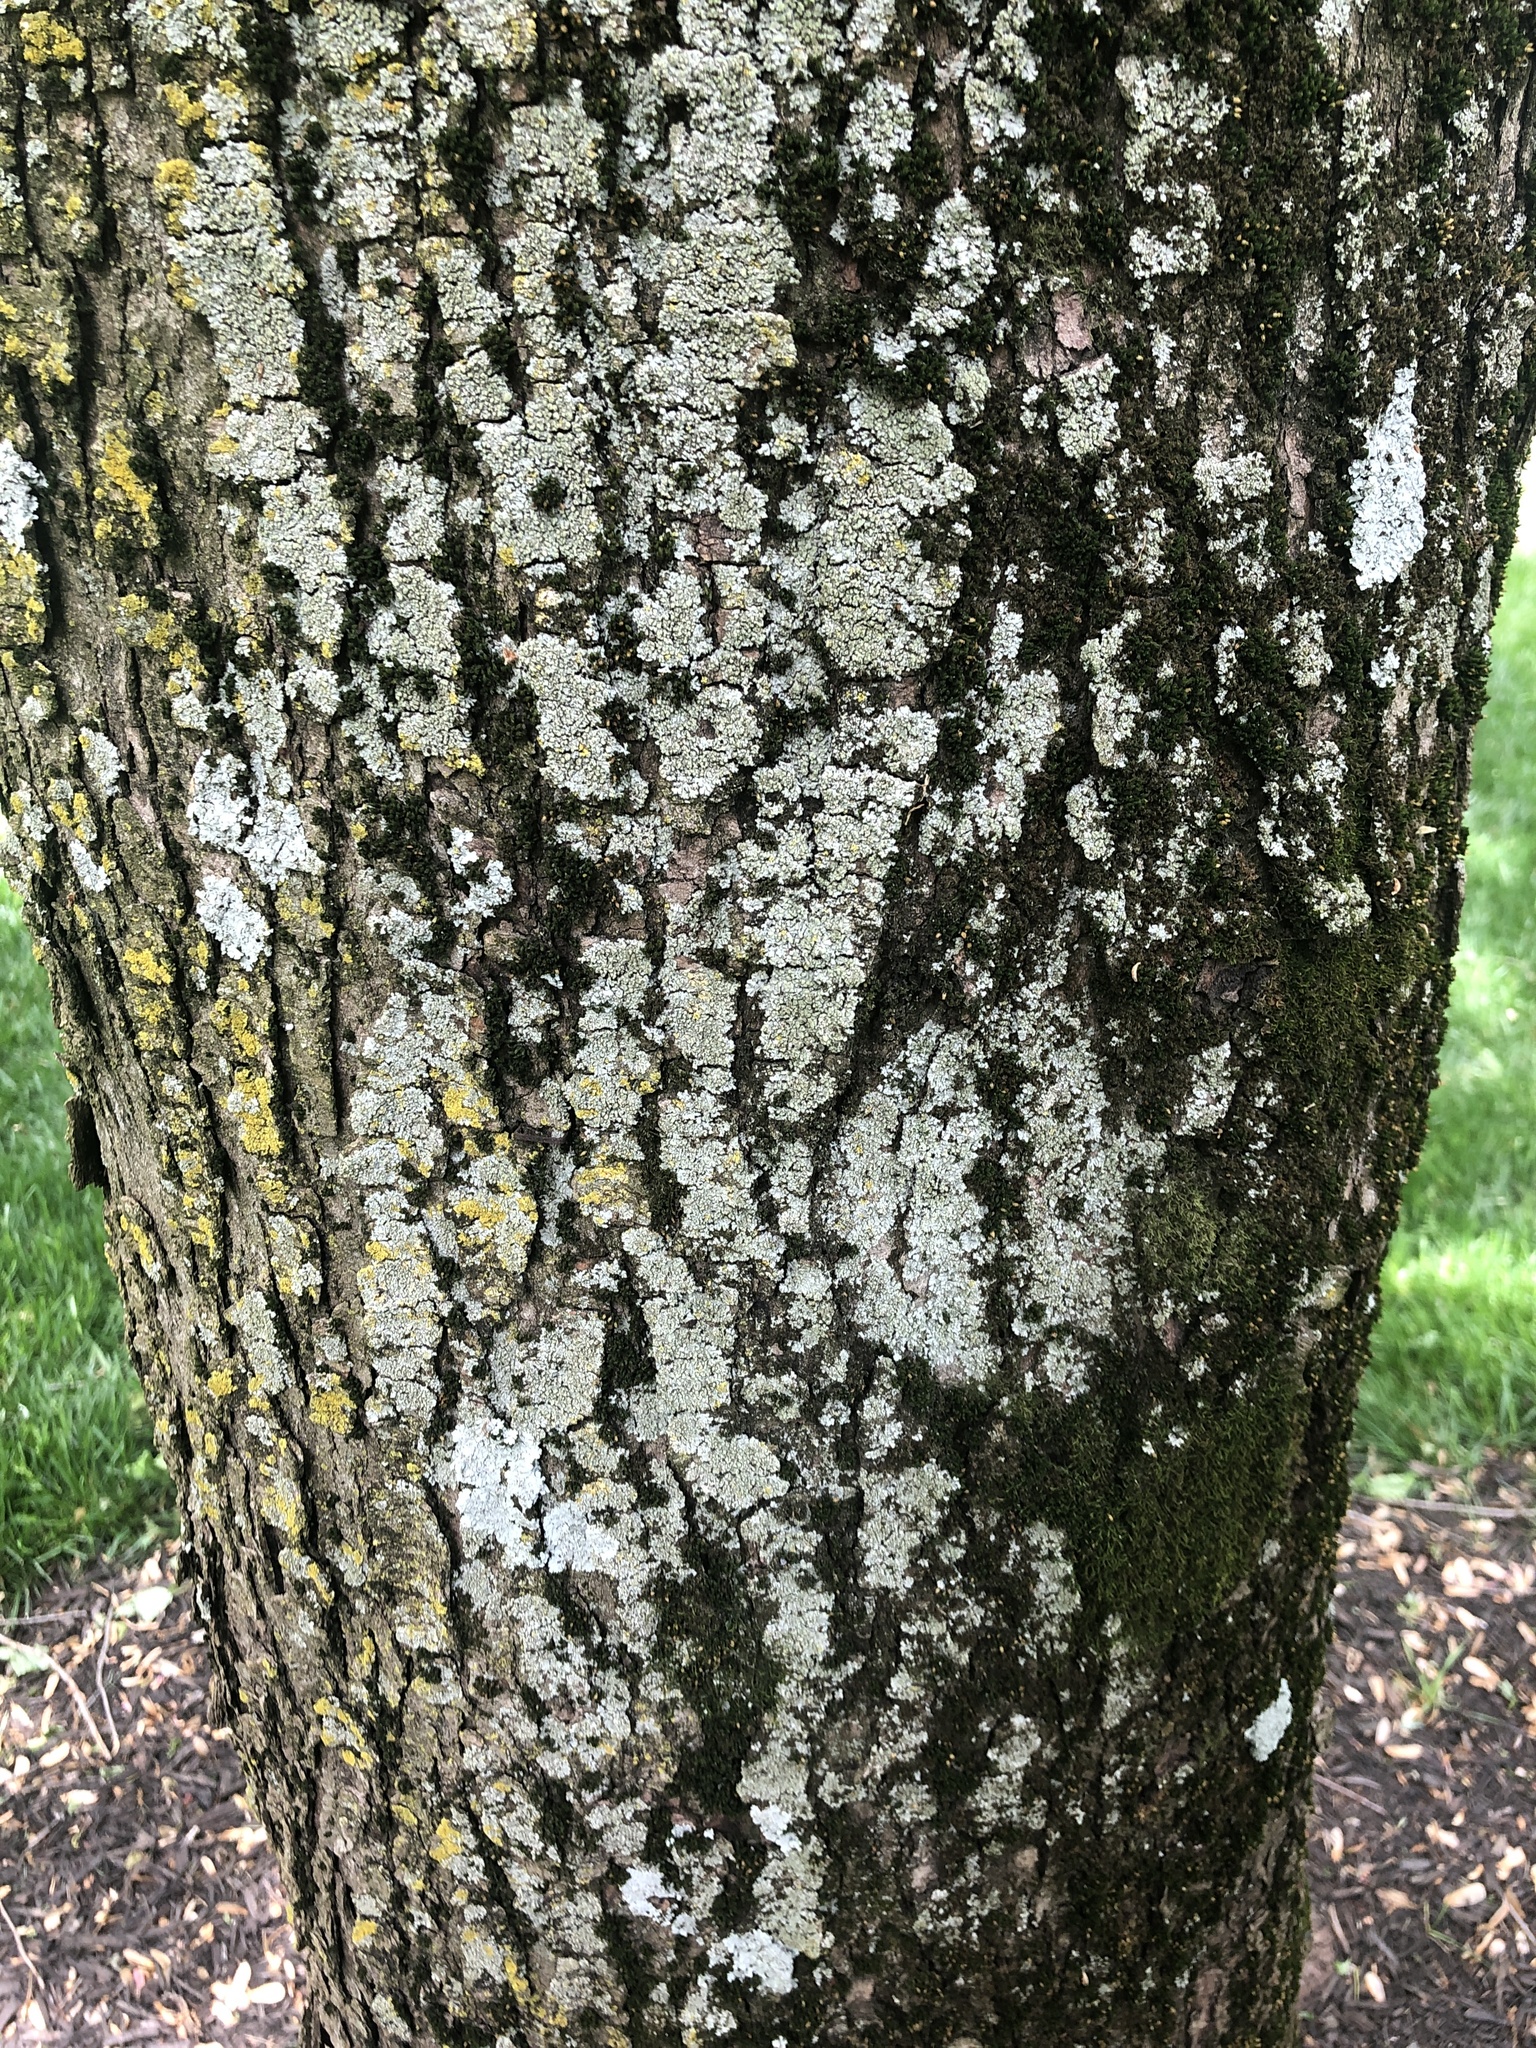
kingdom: Fungi
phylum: Ascomycota
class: Lecanoromycetes
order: Ostropales
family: Phlyctidaceae
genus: Phlyctis
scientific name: Phlyctis argena
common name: Whitewash lichen
